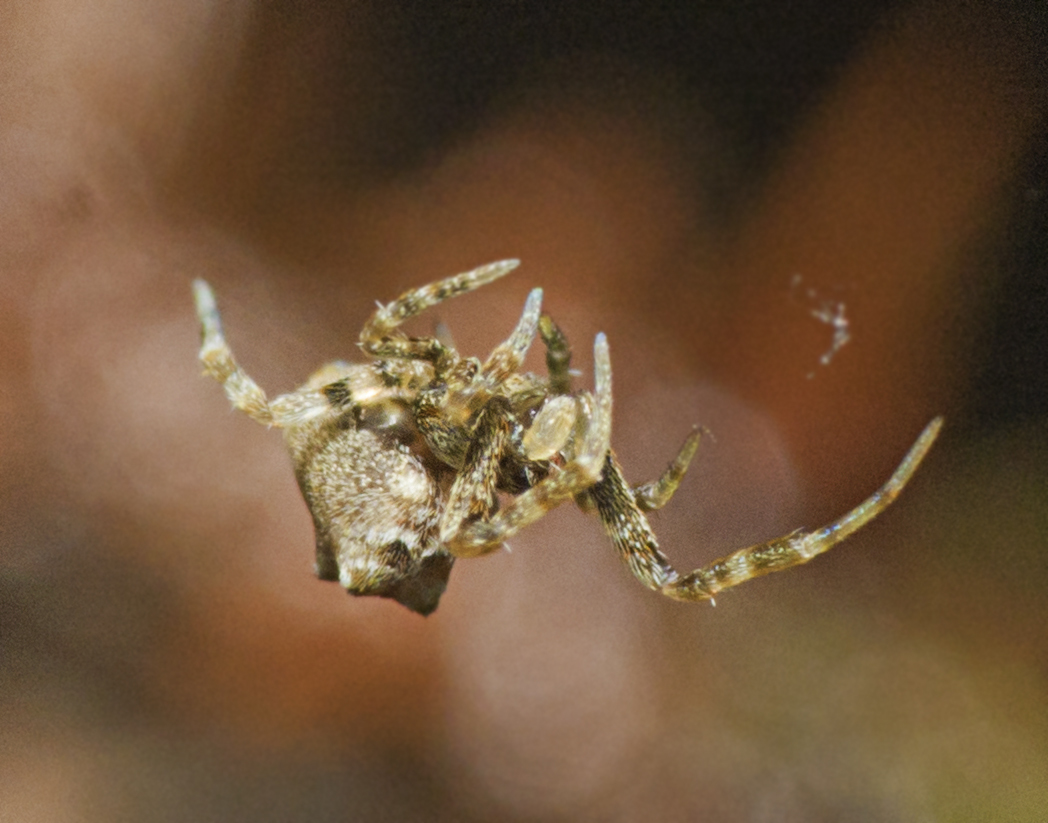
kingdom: Animalia
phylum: Arthropoda
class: Arachnida
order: Araneae
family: Uloboridae
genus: Philoponella
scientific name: Philoponella congregabilis
